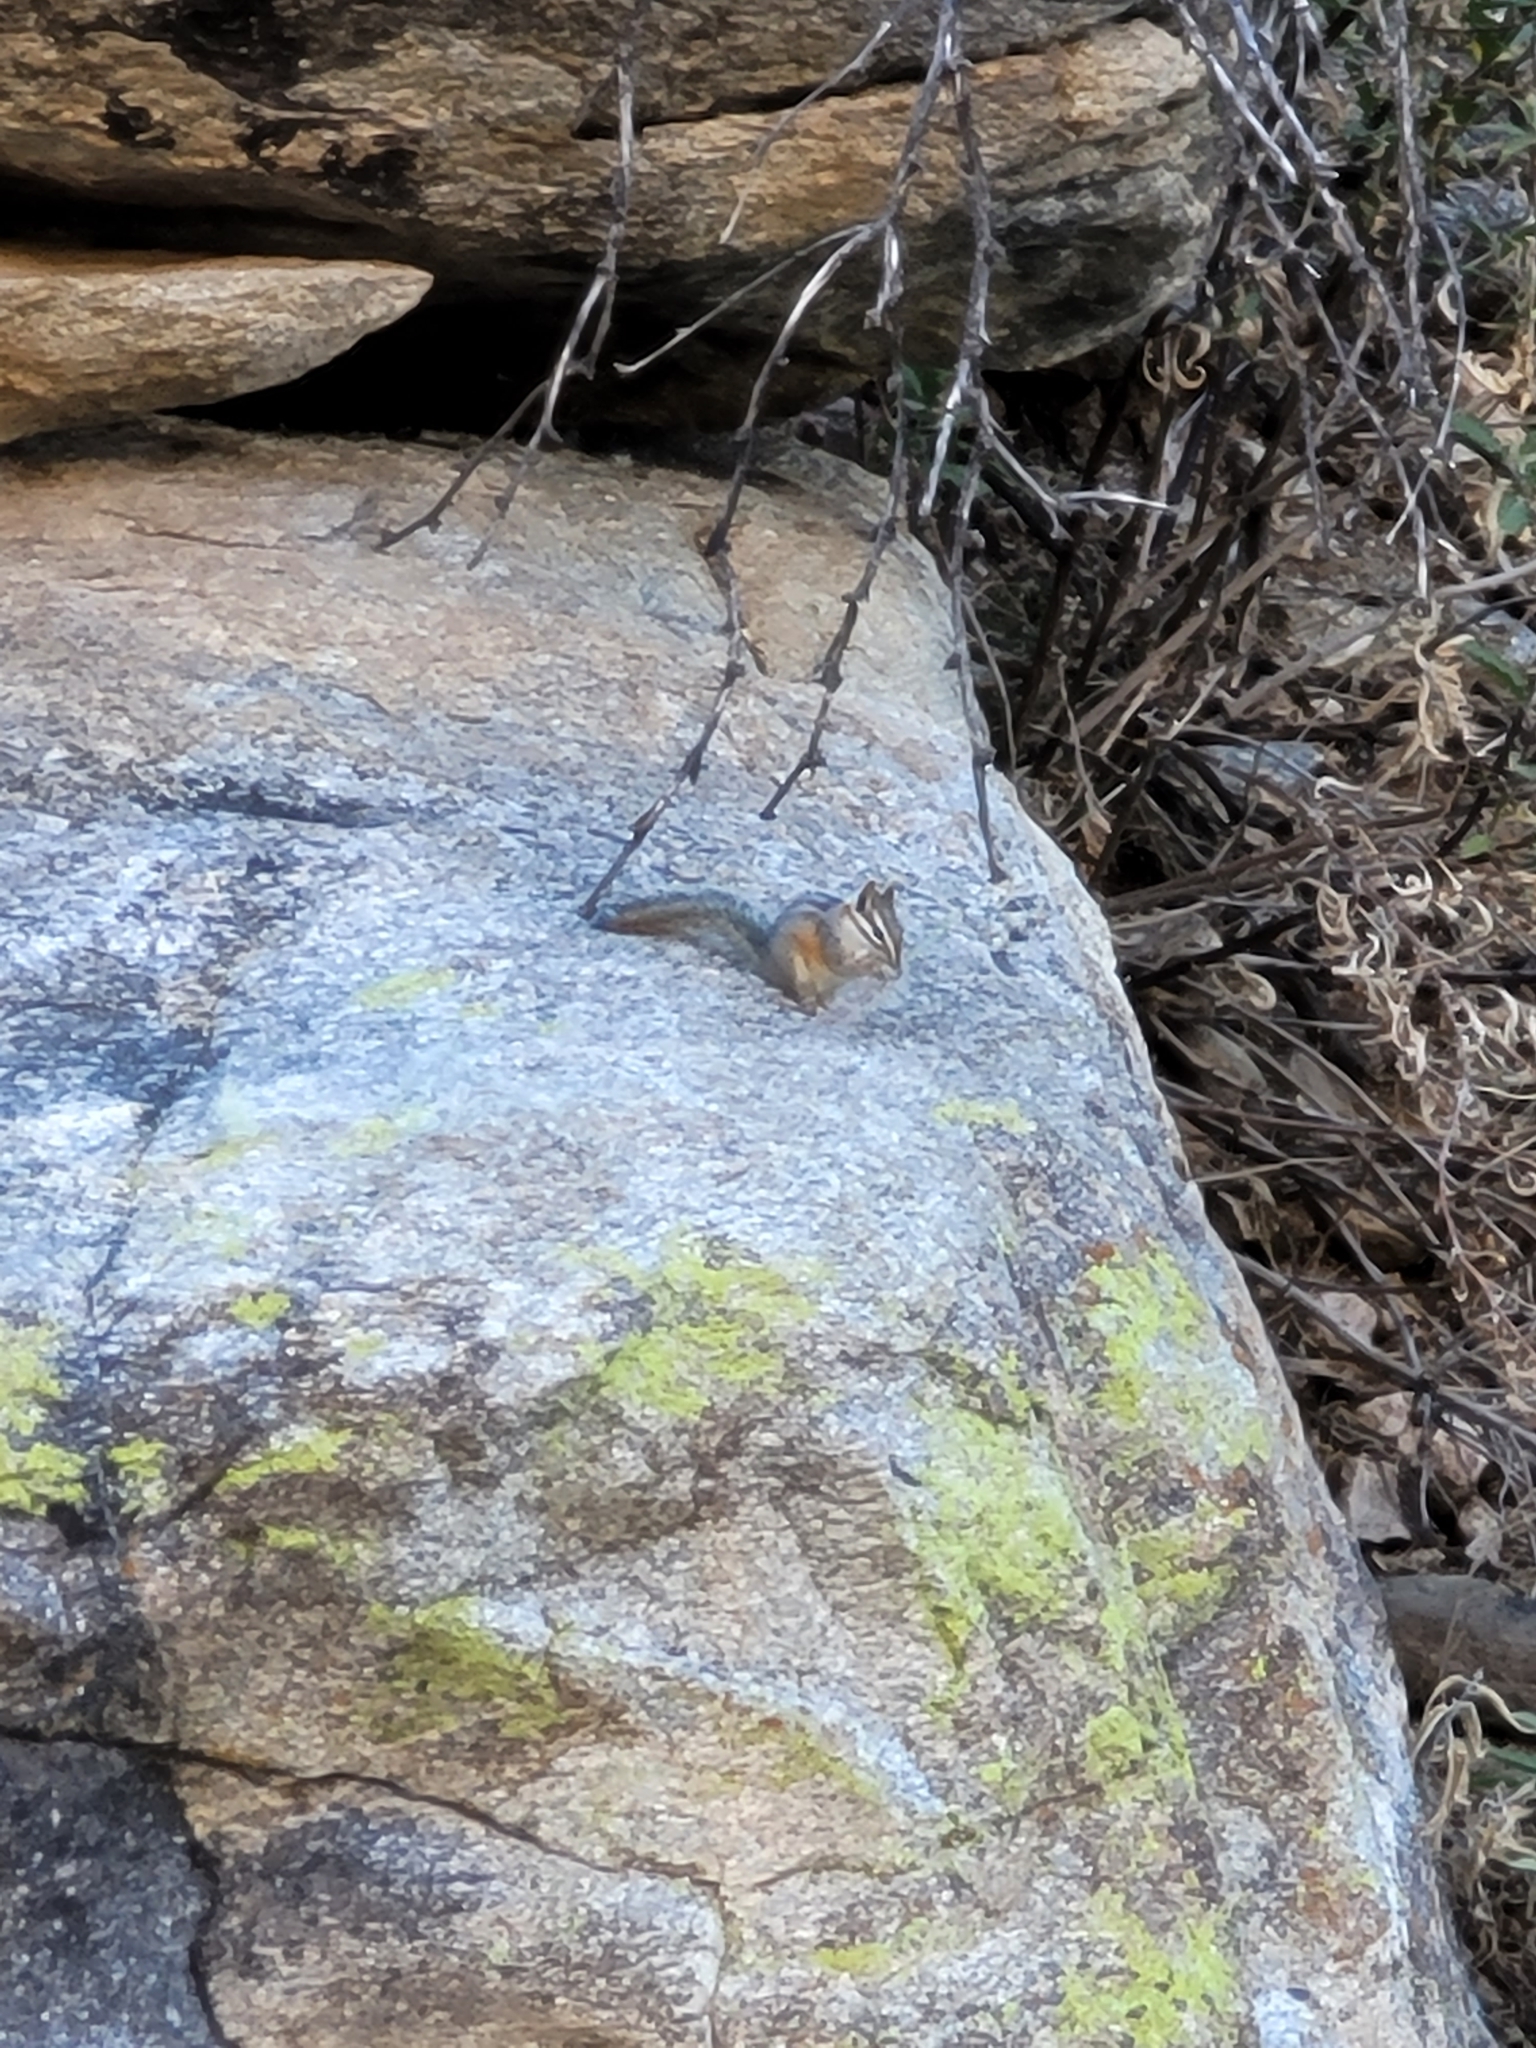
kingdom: Animalia
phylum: Chordata
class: Mammalia
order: Rodentia
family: Sciuridae
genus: Tamias
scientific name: Tamias dorsalis
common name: Cliff chipmunk
